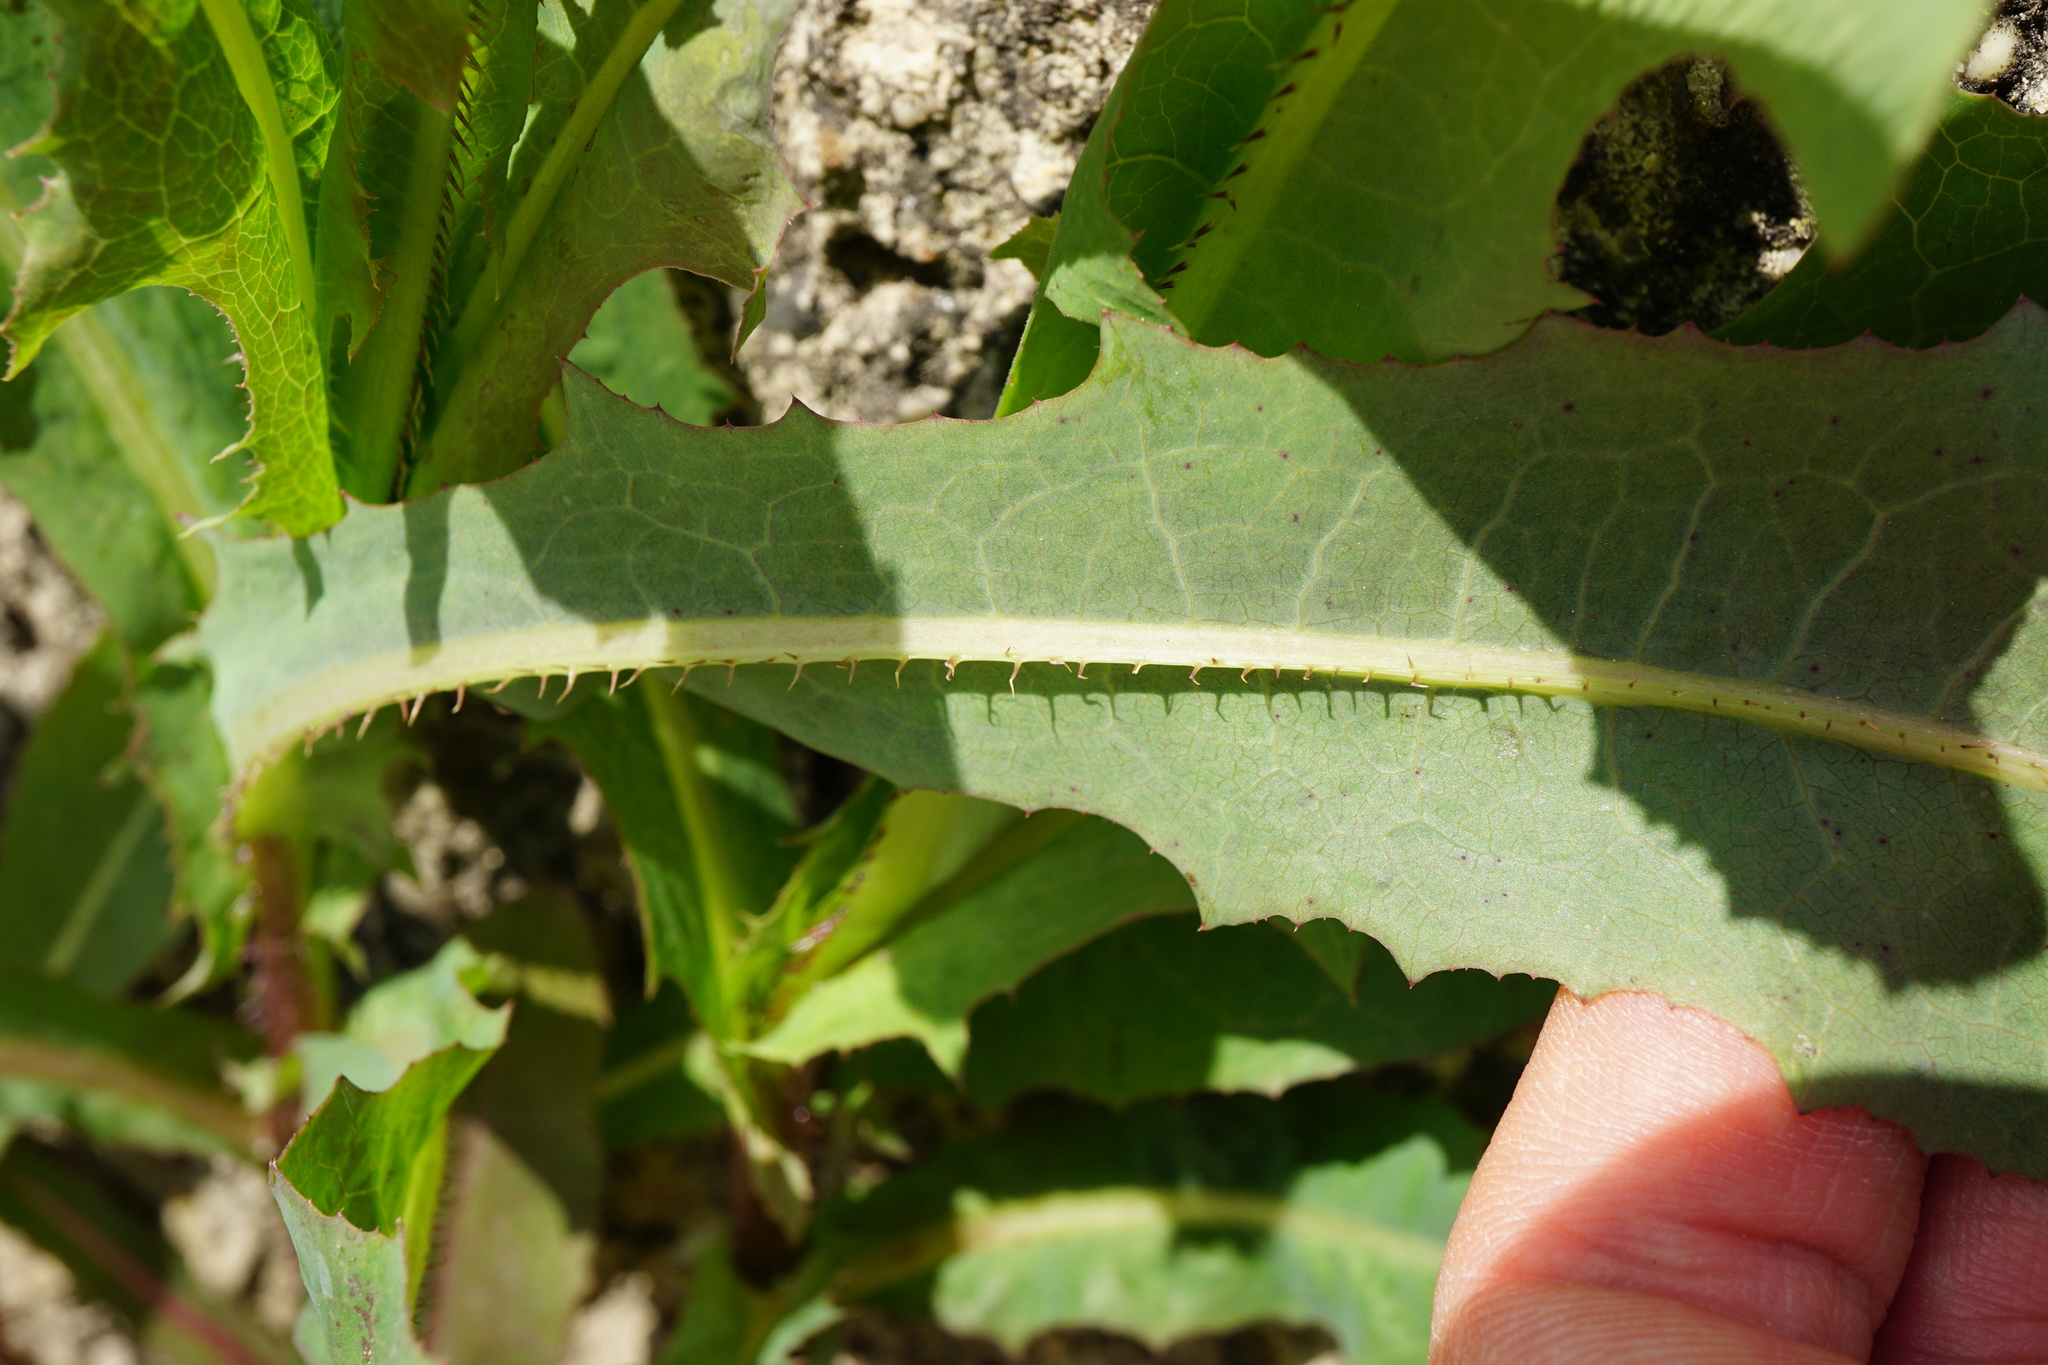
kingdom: Plantae
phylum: Tracheophyta
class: Magnoliopsida
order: Asterales
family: Asteraceae
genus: Lactuca
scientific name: Lactuca serriola
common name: Prickly lettuce
